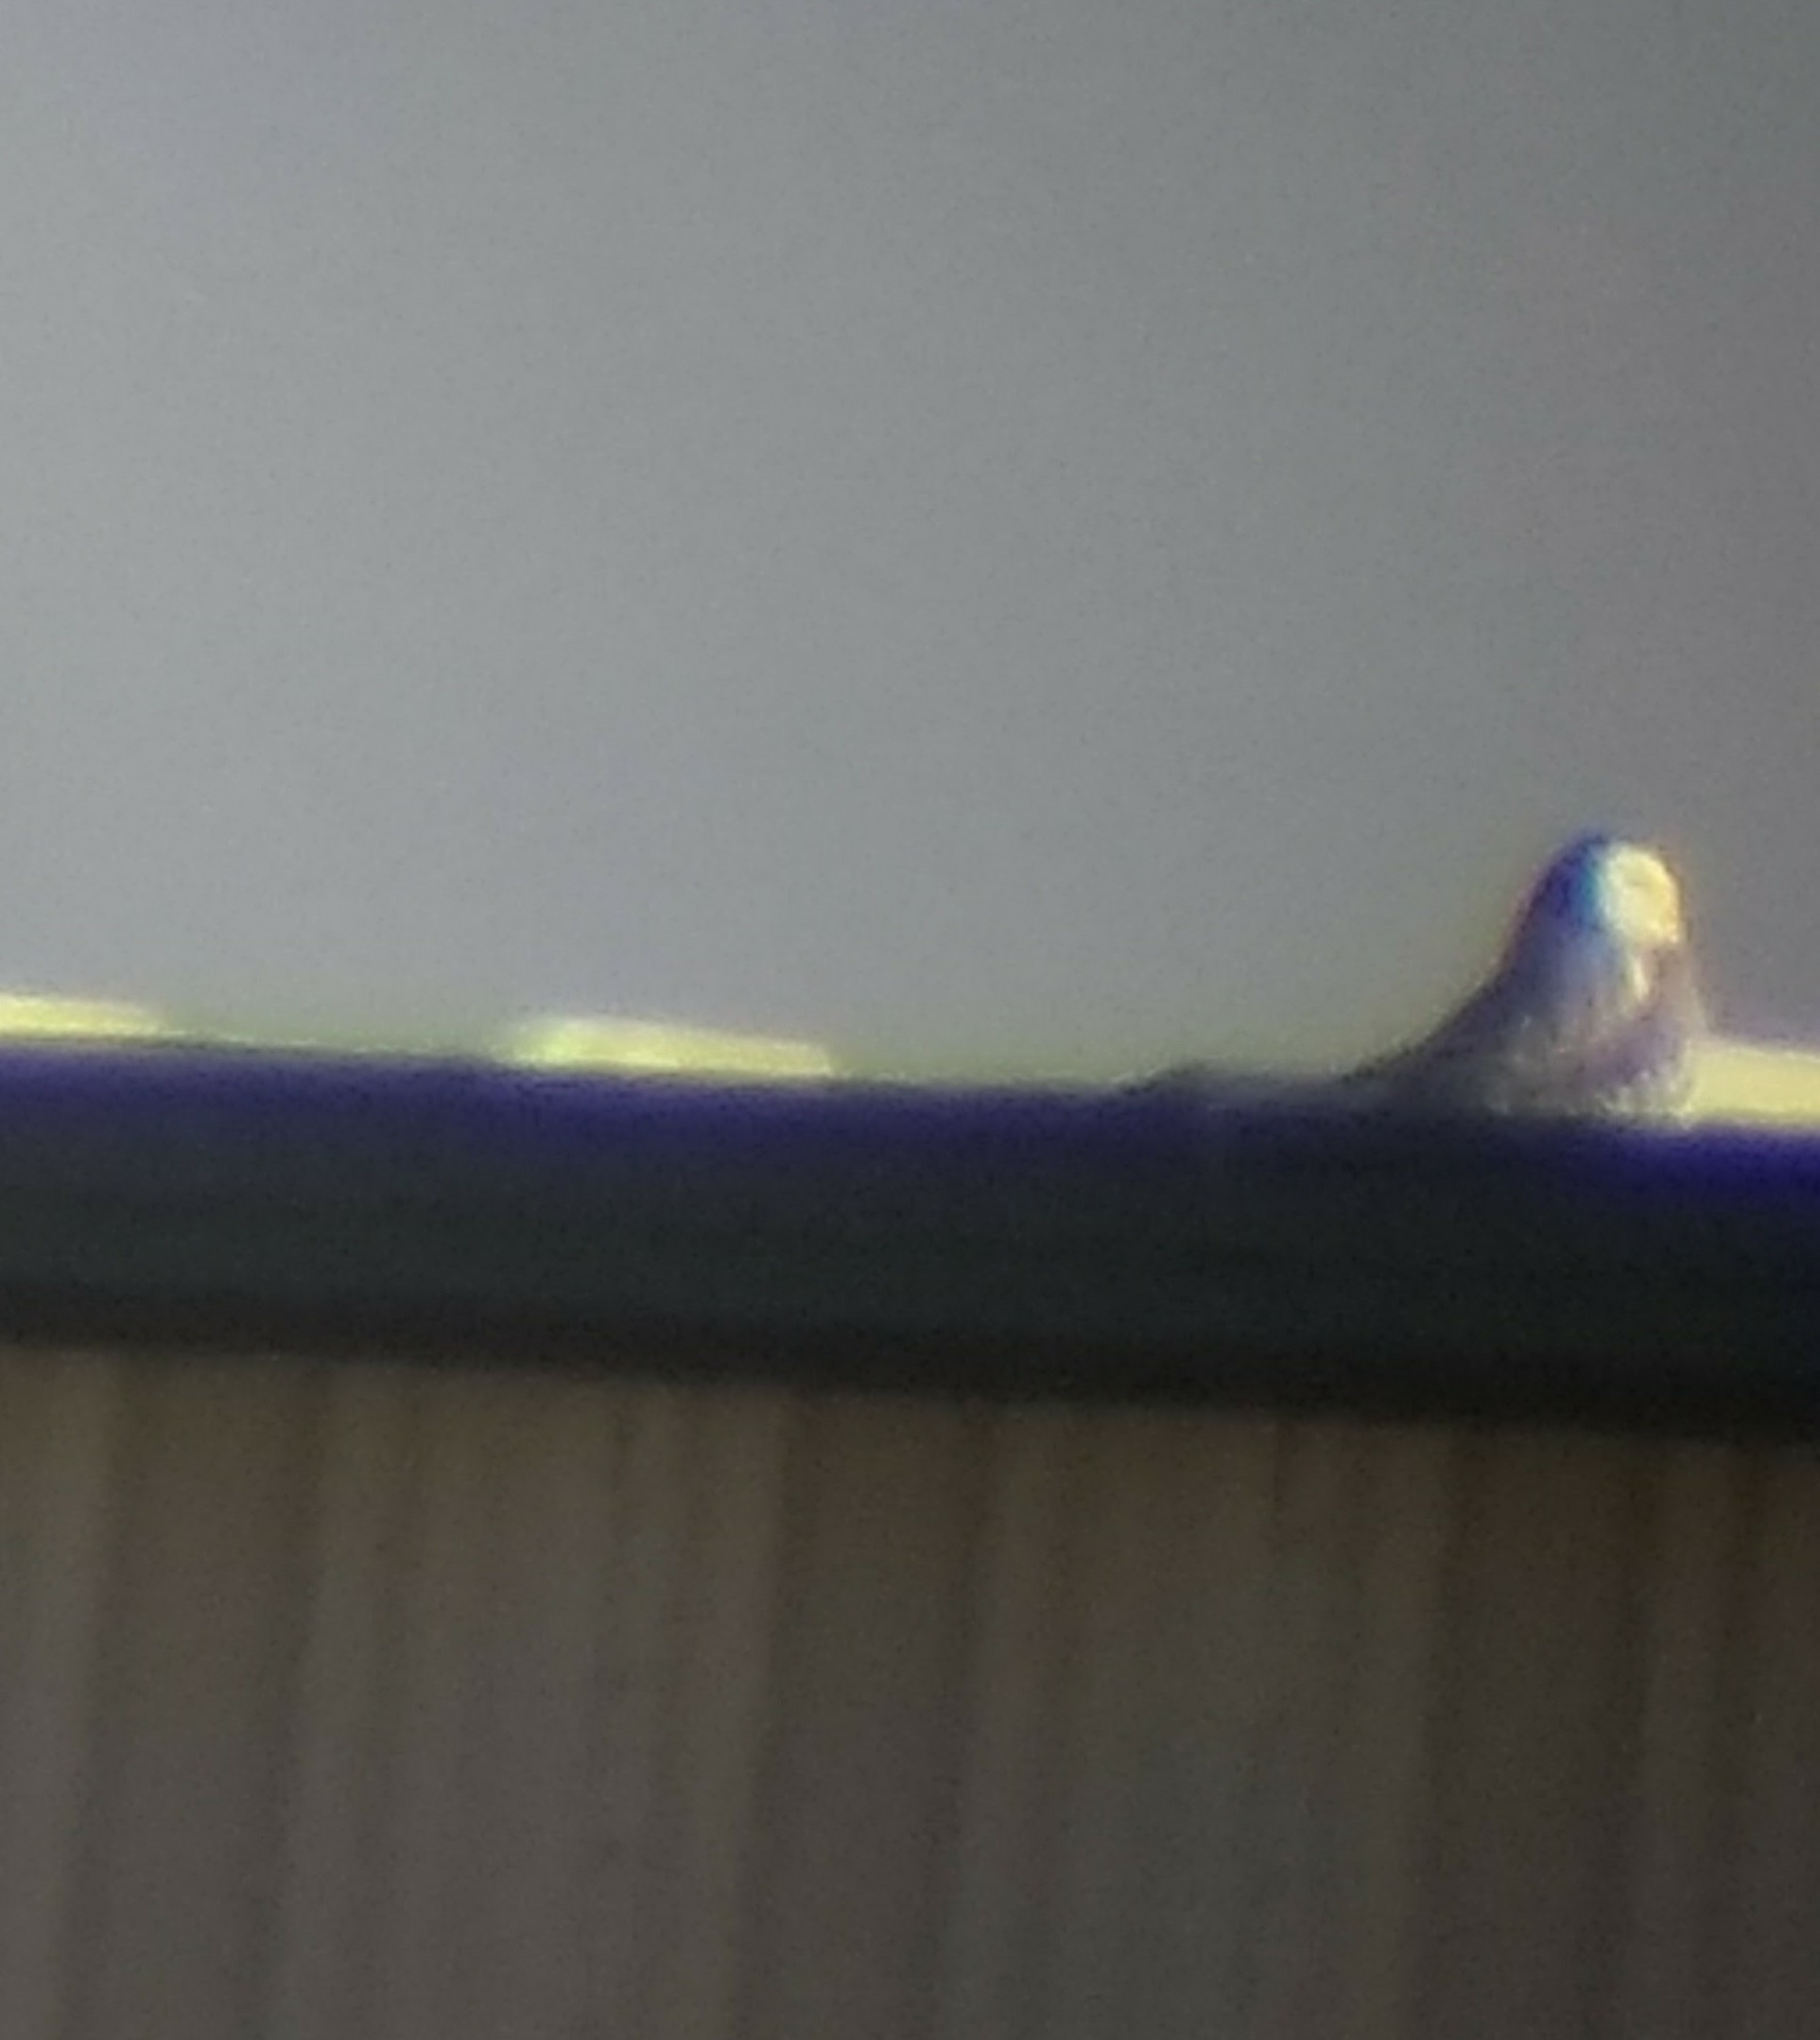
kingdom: Animalia
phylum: Chordata
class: Aves
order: Strigiformes
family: Strigidae
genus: Bubo
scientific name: Bubo scandiacus
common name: Snowy owl
